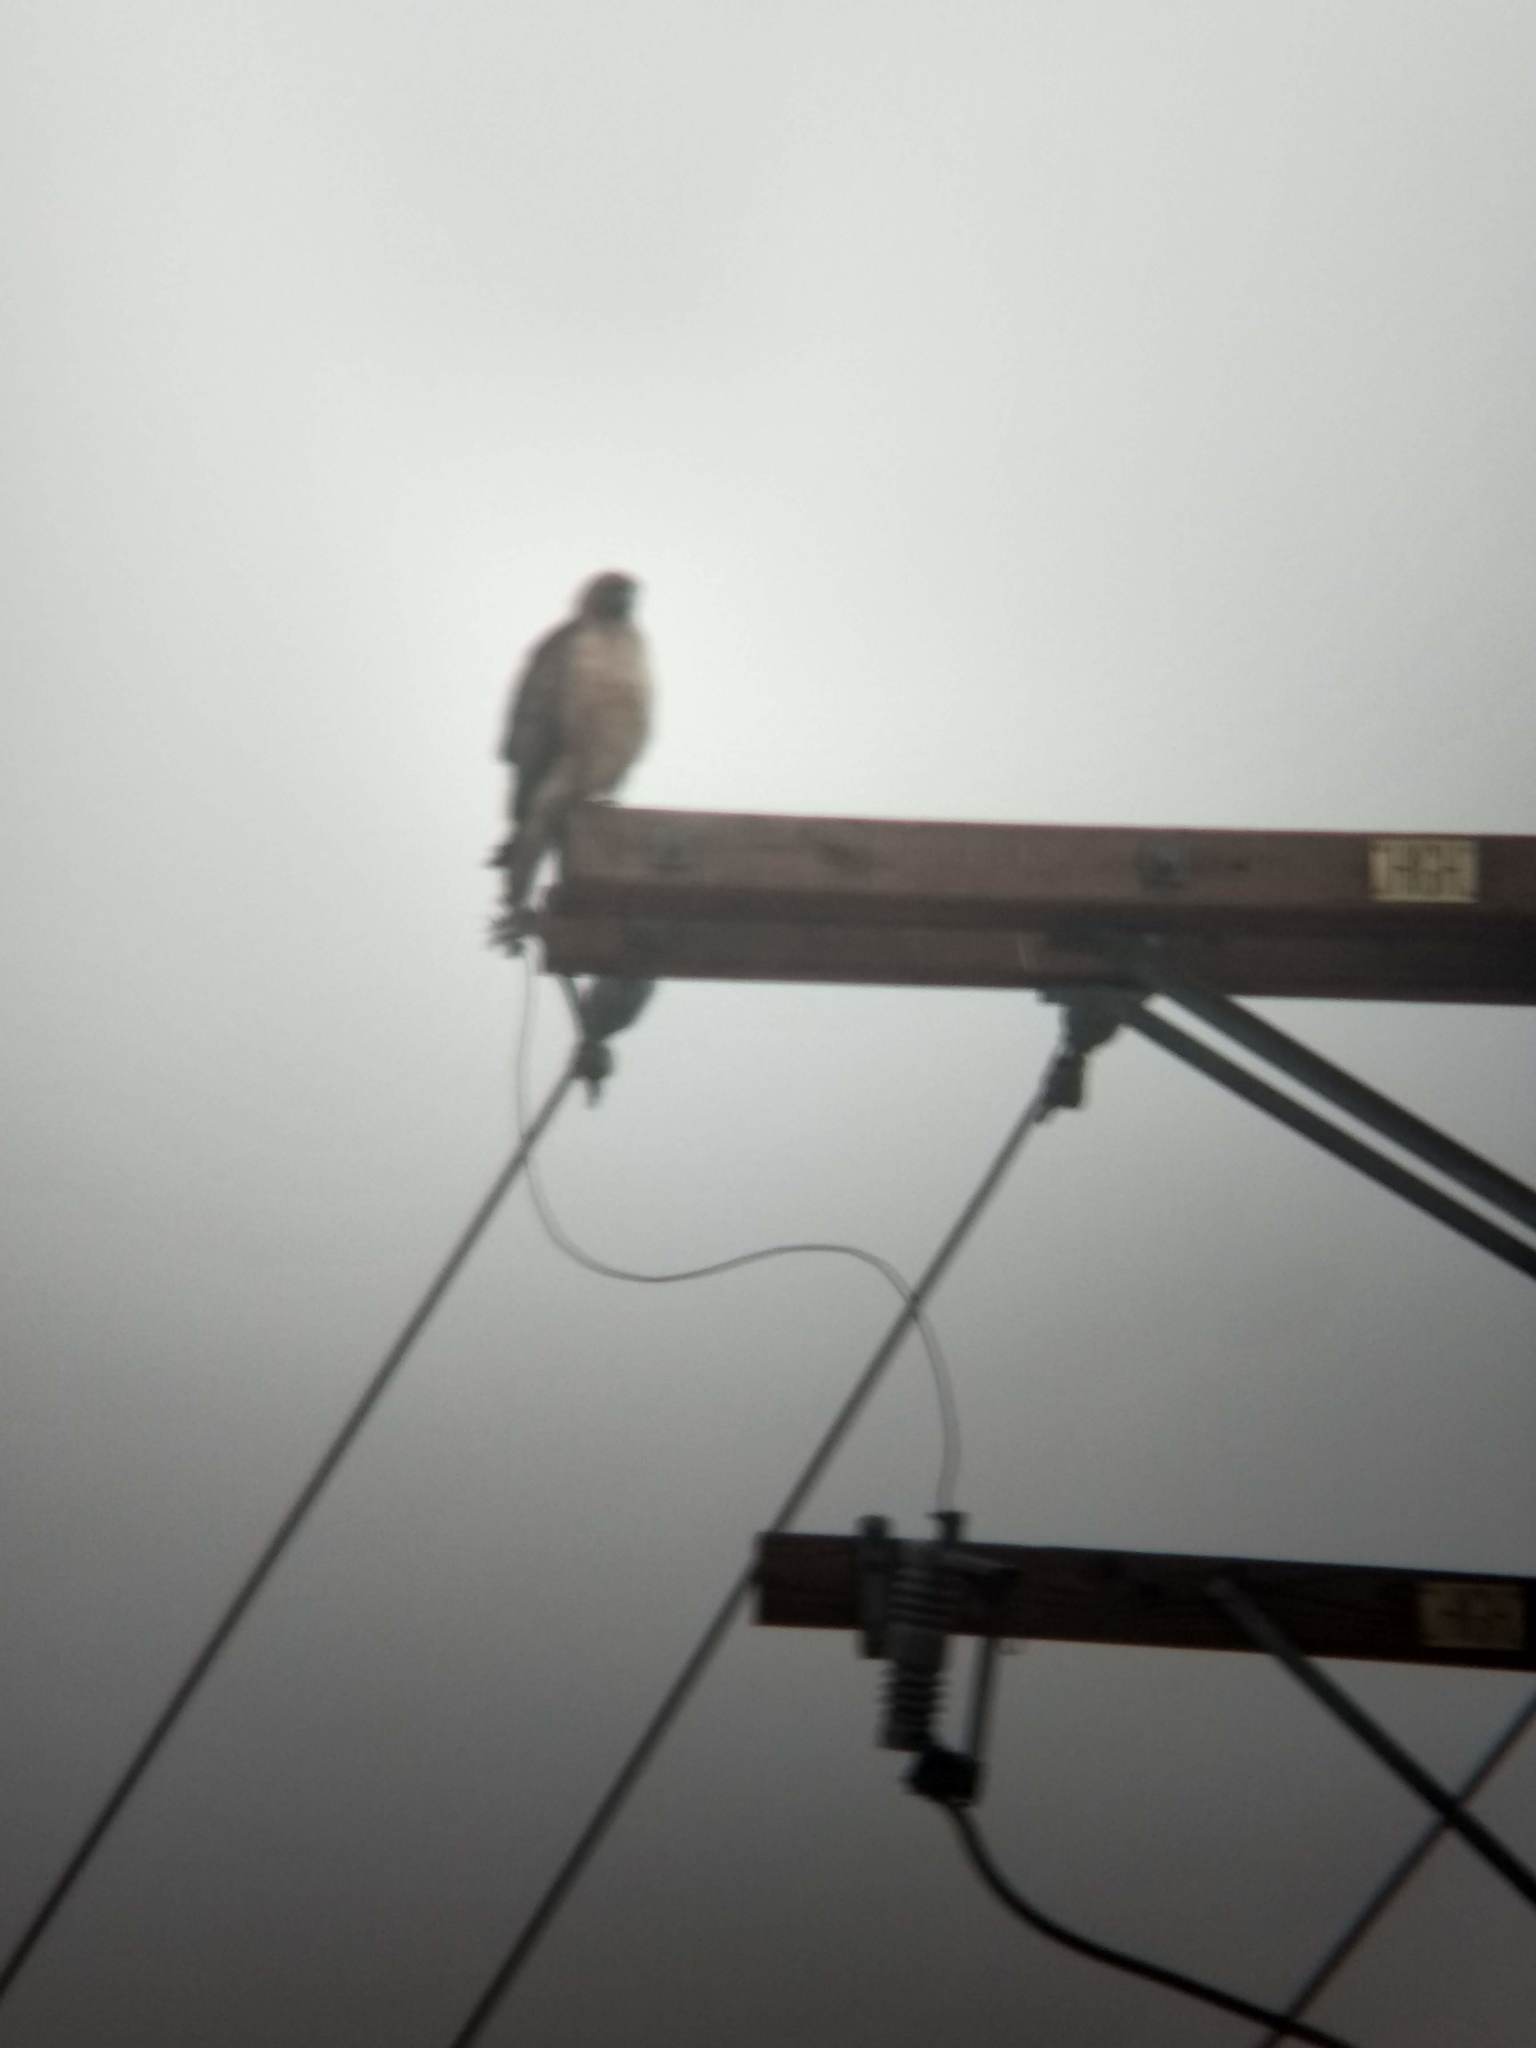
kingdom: Animalia
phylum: Chordata
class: Aves
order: Accipitriformes
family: Accipitridae
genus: Buteo
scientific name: Buteo jamaicensis
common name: Red-tailed hawk
